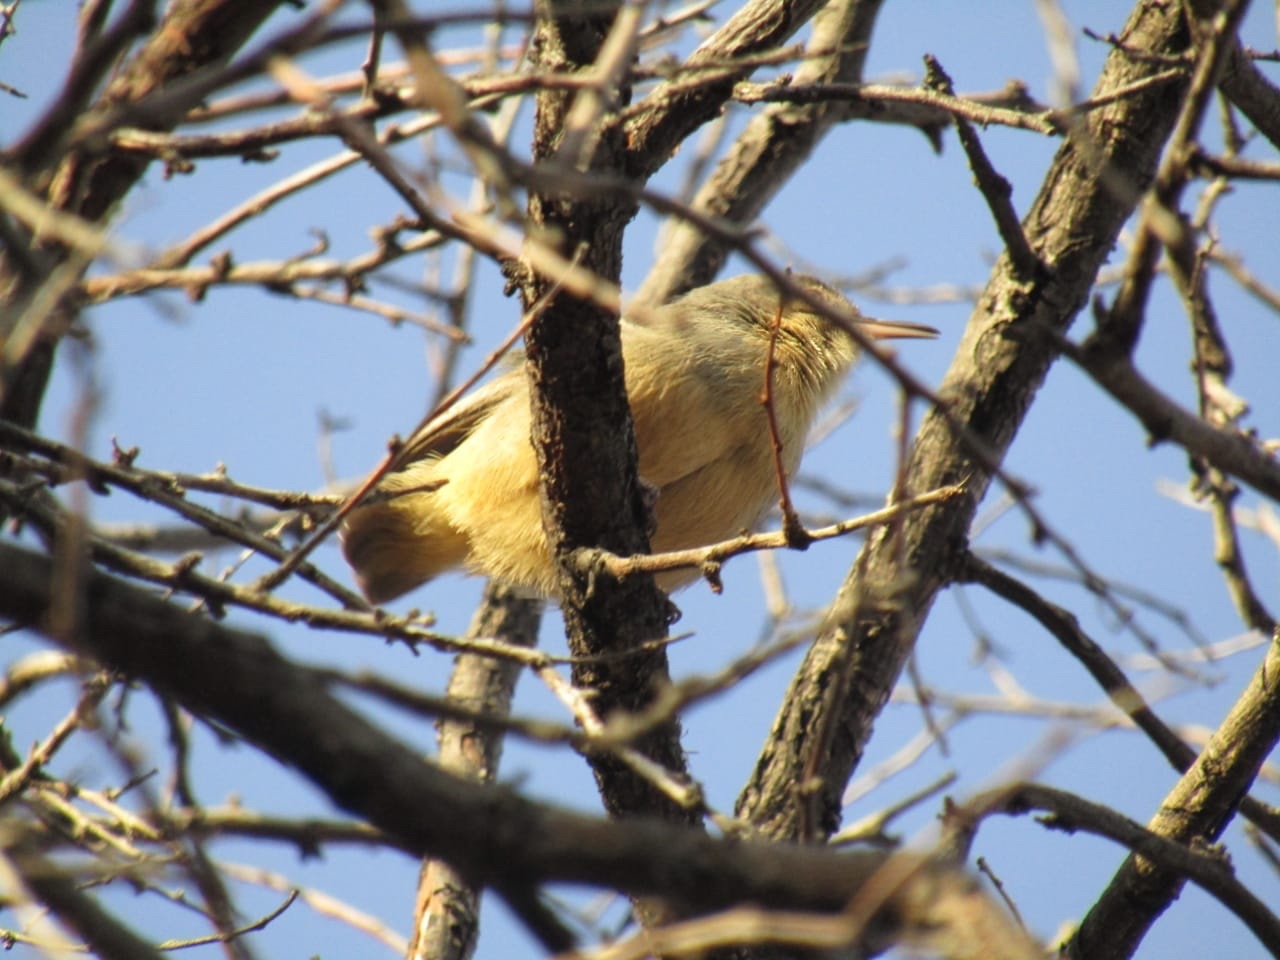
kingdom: Animalia
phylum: Chordata
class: Aves
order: Passeriformes
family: Macrosphenidae
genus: Sylvietta
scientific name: Sylvietta rufescens
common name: Long-billed crombec
